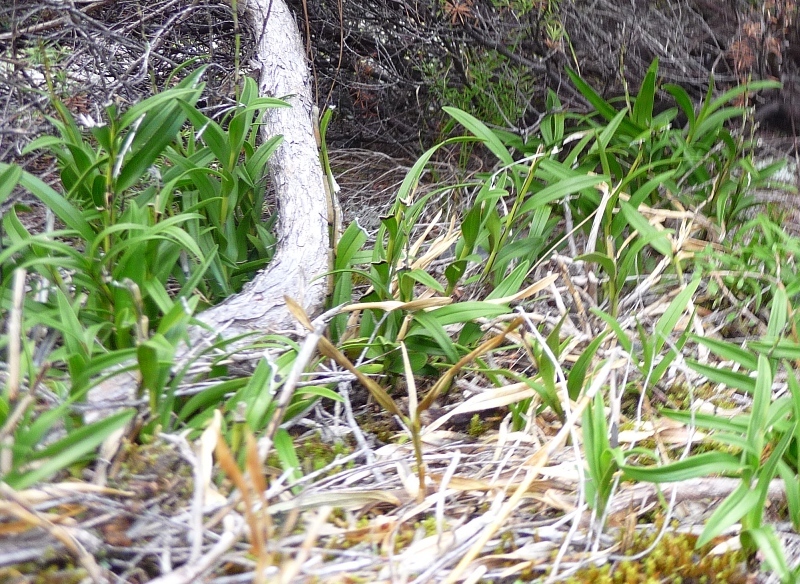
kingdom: Plantae
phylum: Tracheophyta
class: Liliopsida
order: Asparagales
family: Orchidaceae
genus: Earina
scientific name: Earina autumnalis
